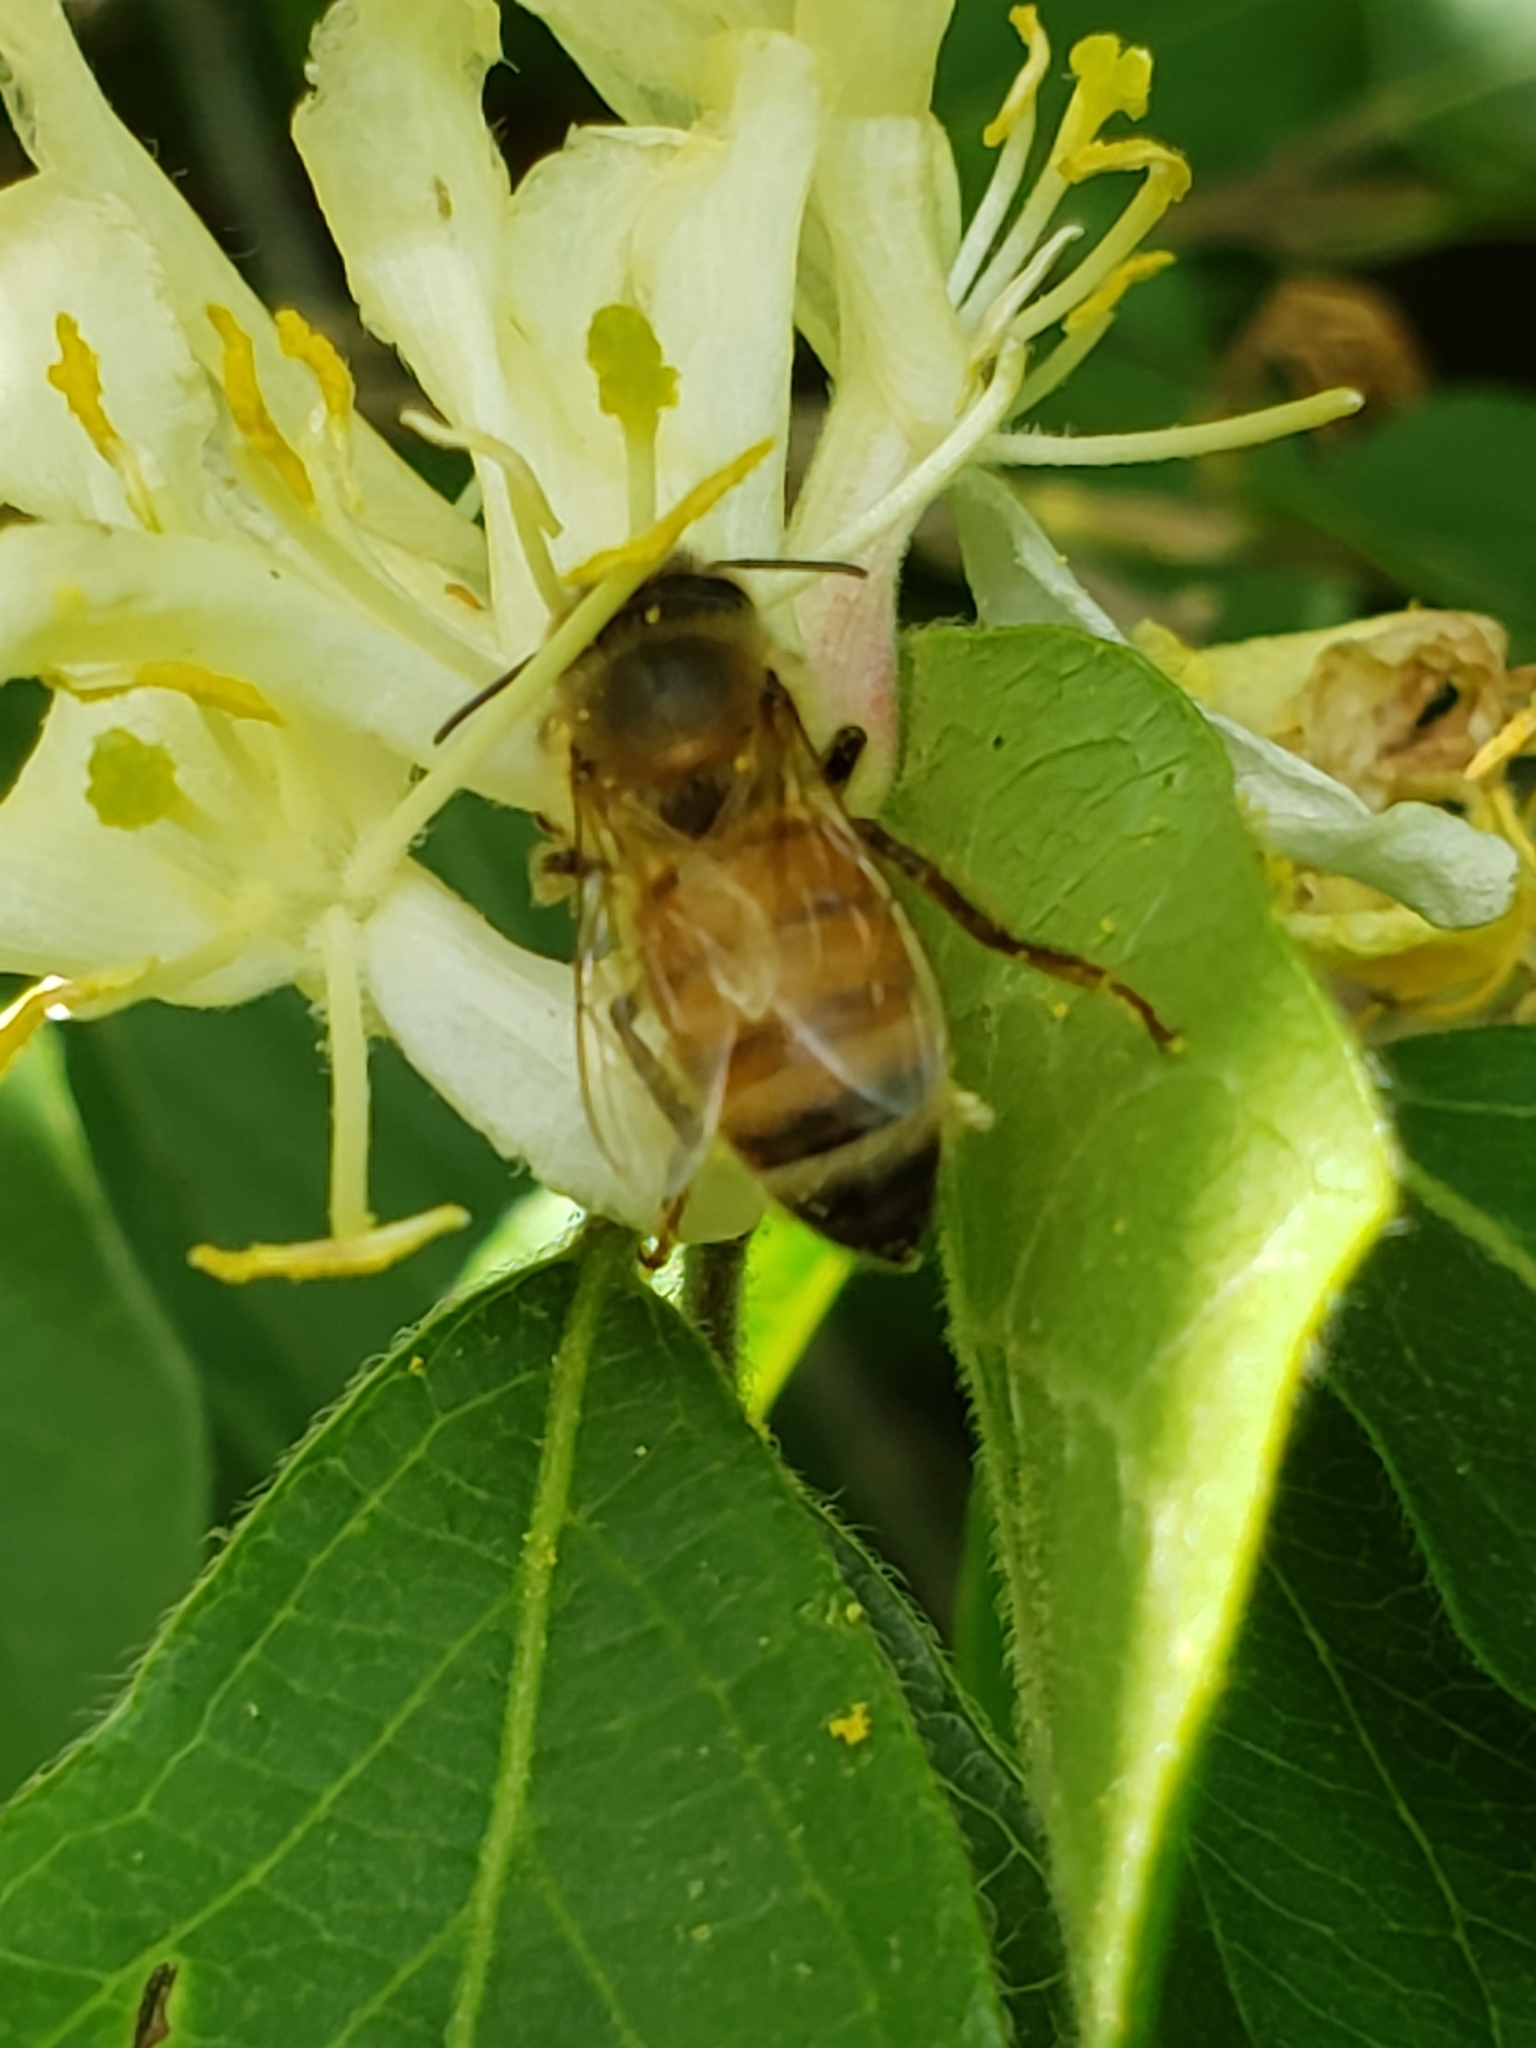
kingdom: Animalia
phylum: Arthropoda
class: Insecta
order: Hymenoptera
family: Apidae
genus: Apis
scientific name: Apis mellifera
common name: Honey bee
